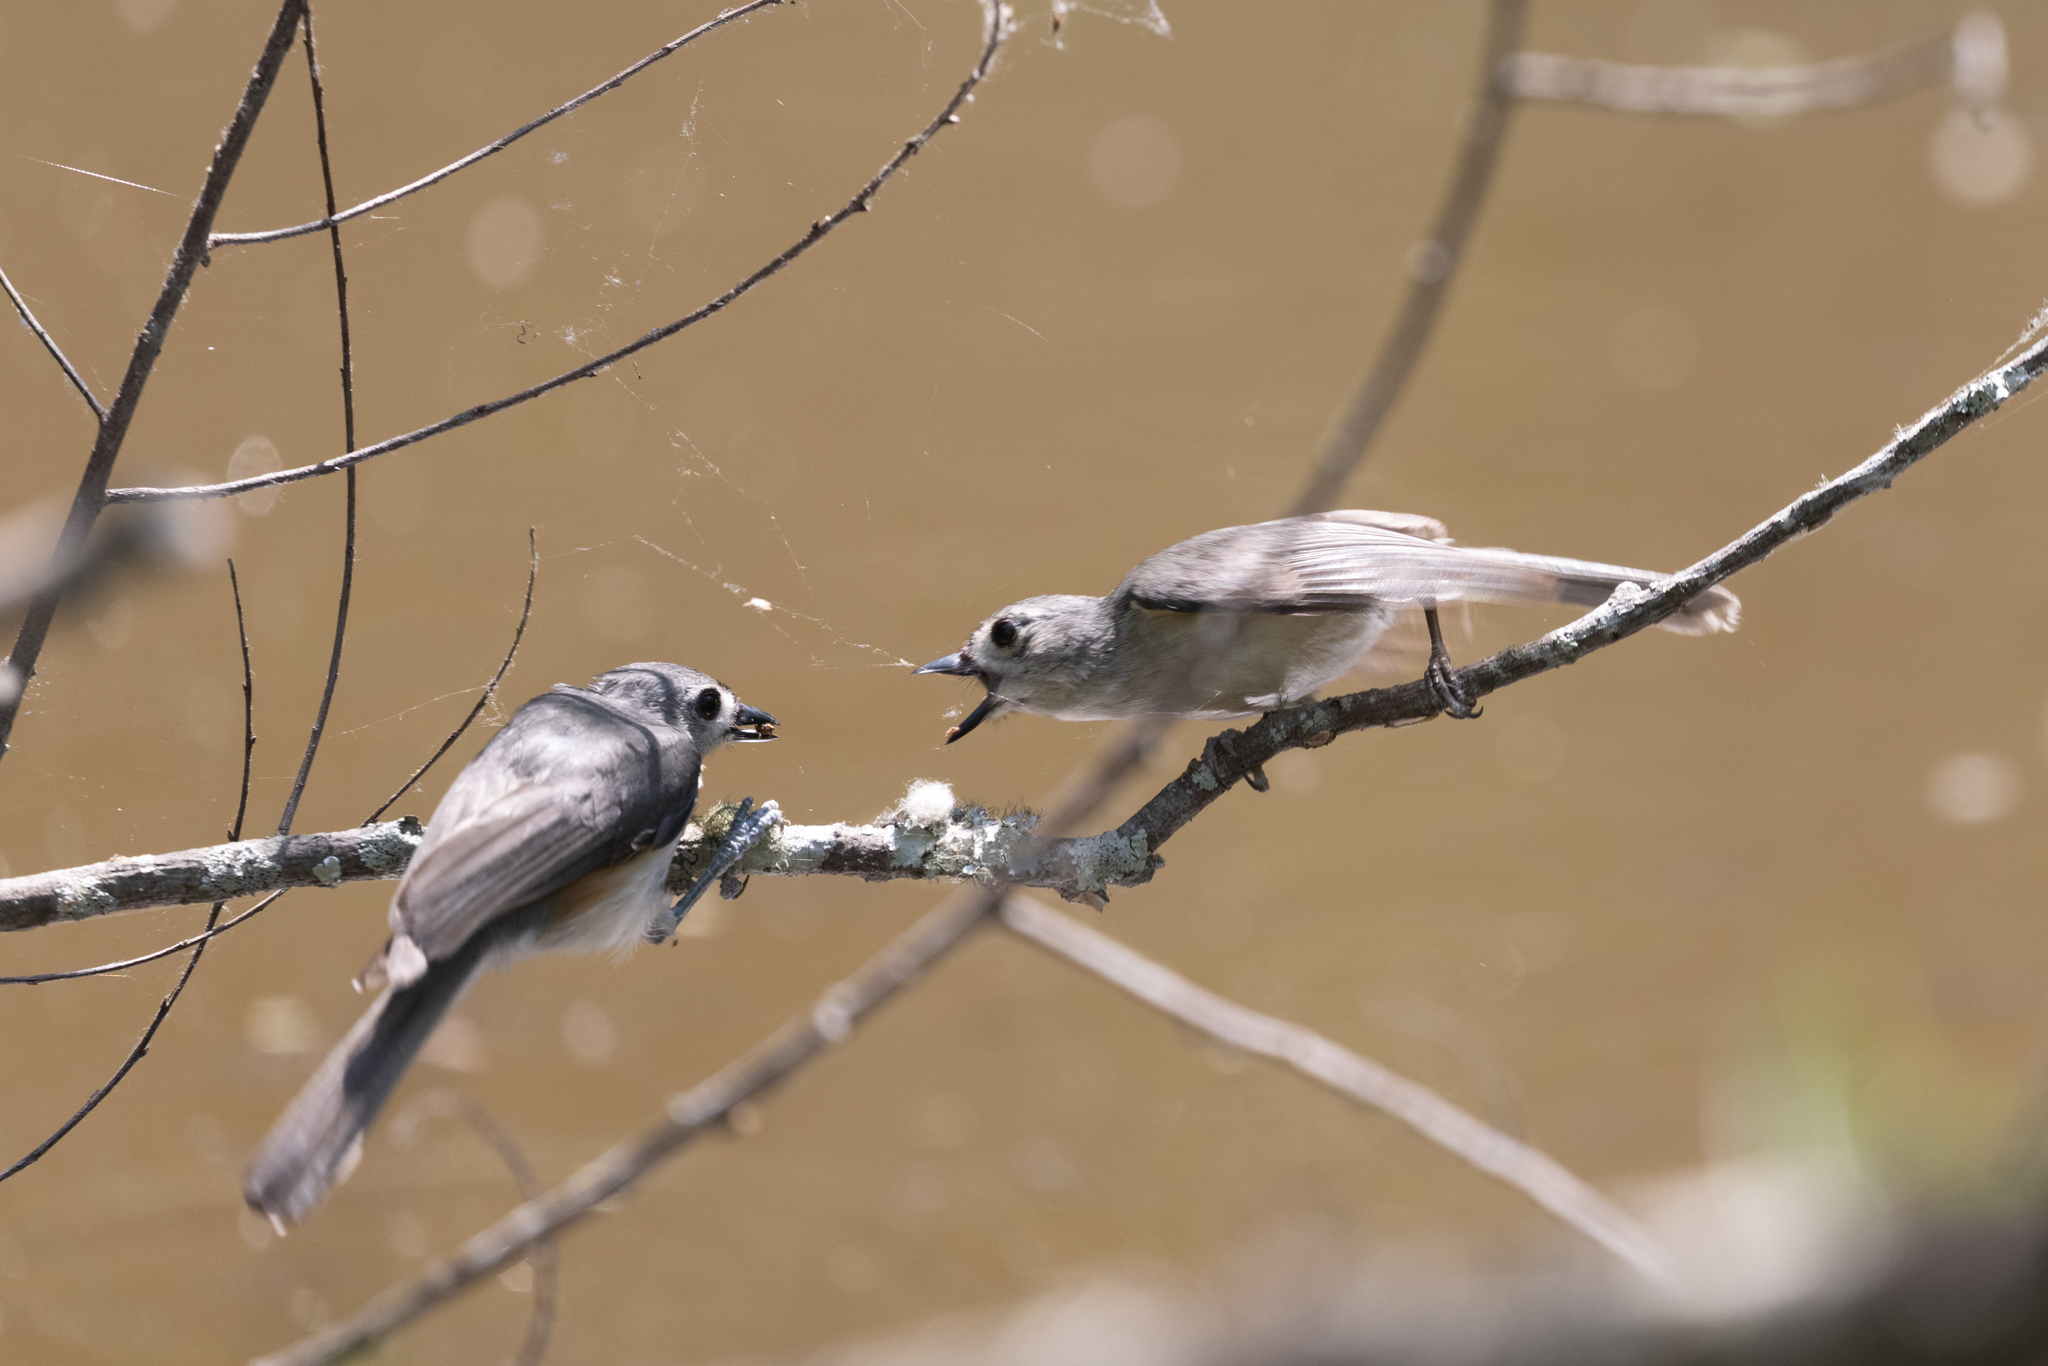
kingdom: Animalia
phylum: Chordata
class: Aves
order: Passeriformes
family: Paridae
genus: Baeolophus
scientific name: Baeolophus bicolor
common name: Tufted titmouse
